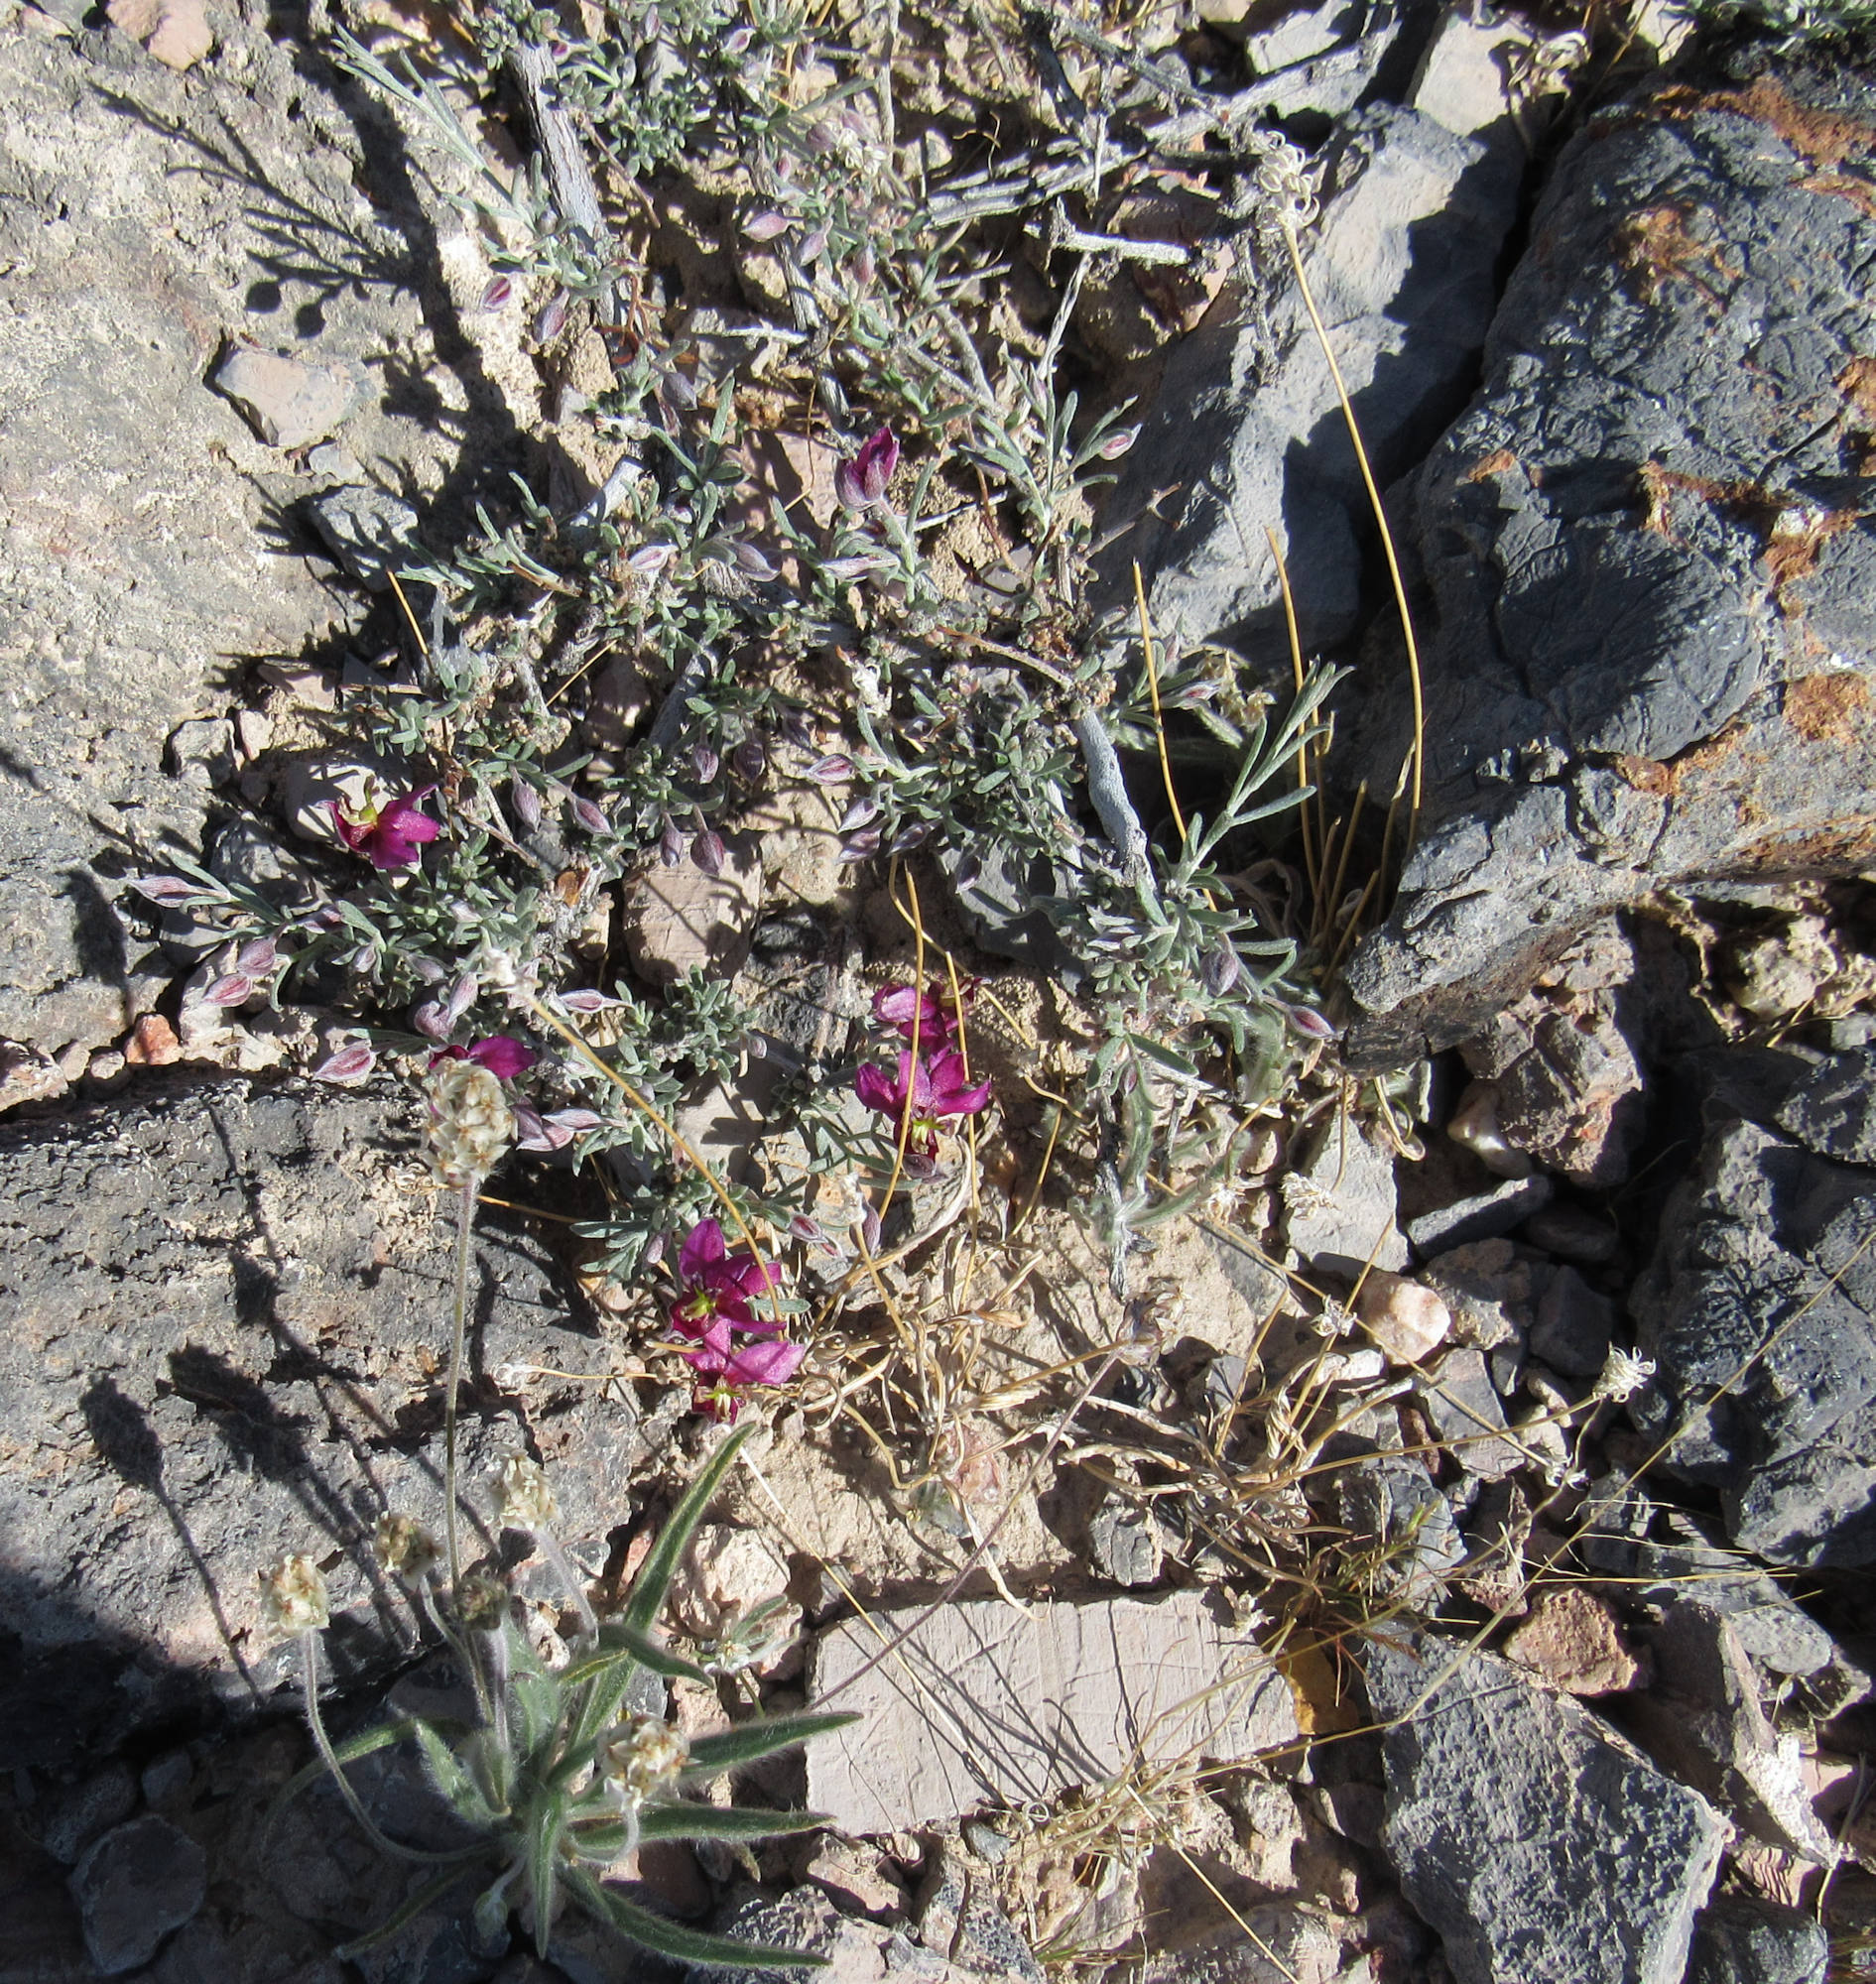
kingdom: Plantae
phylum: Tracheophyta
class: Magnoliopsida
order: Zygophyllales
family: Krameriaceae
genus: Krameria
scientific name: Krameria erecta
